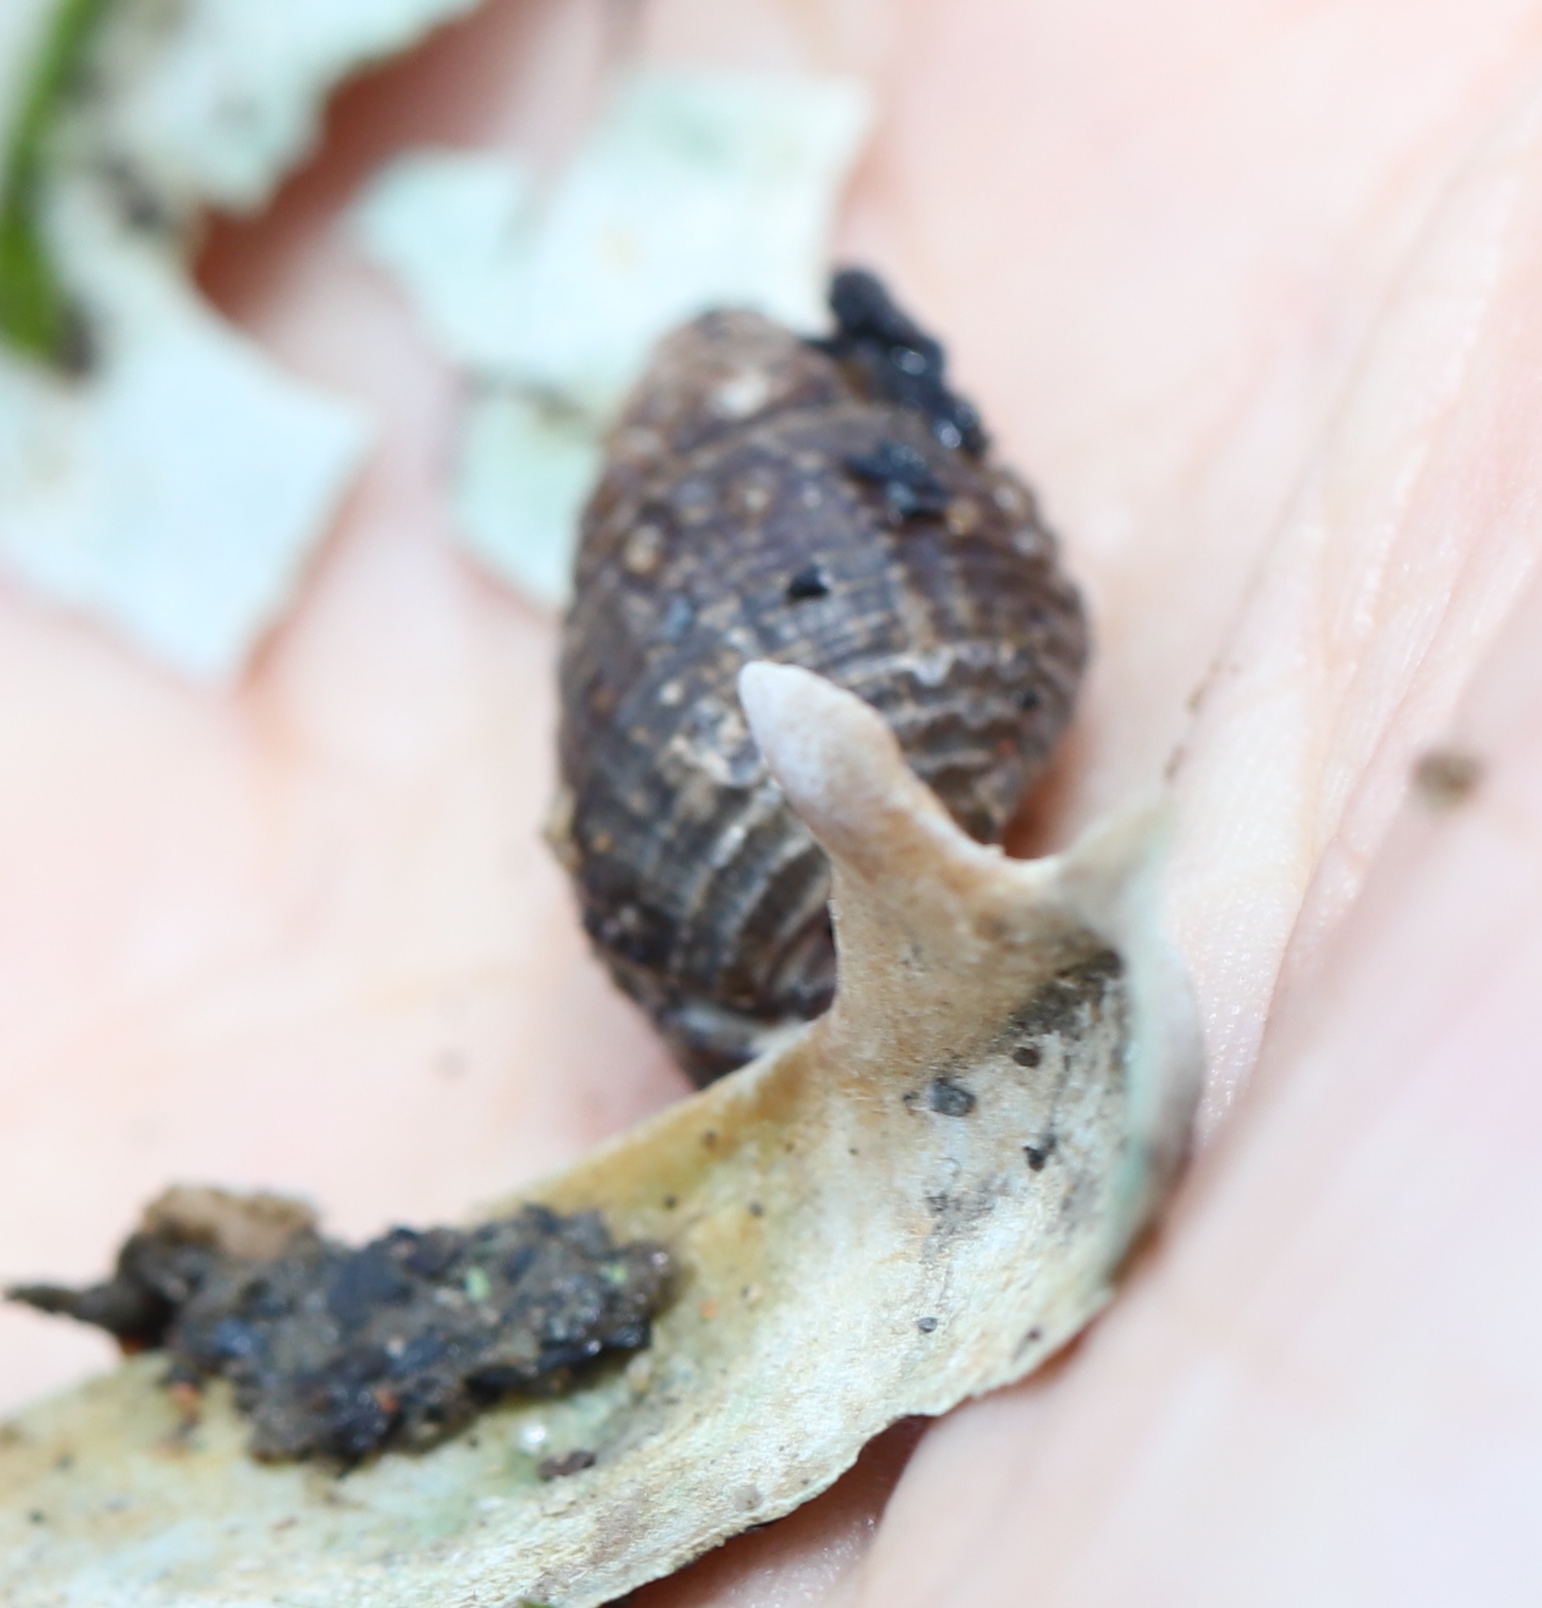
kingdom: Animalia
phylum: Mollusca
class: Gastropoda
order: Neogastropoda
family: Nassariidae
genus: Ilyanassa
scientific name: Ilyanassa obsoleta
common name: Eastern mudsnail
